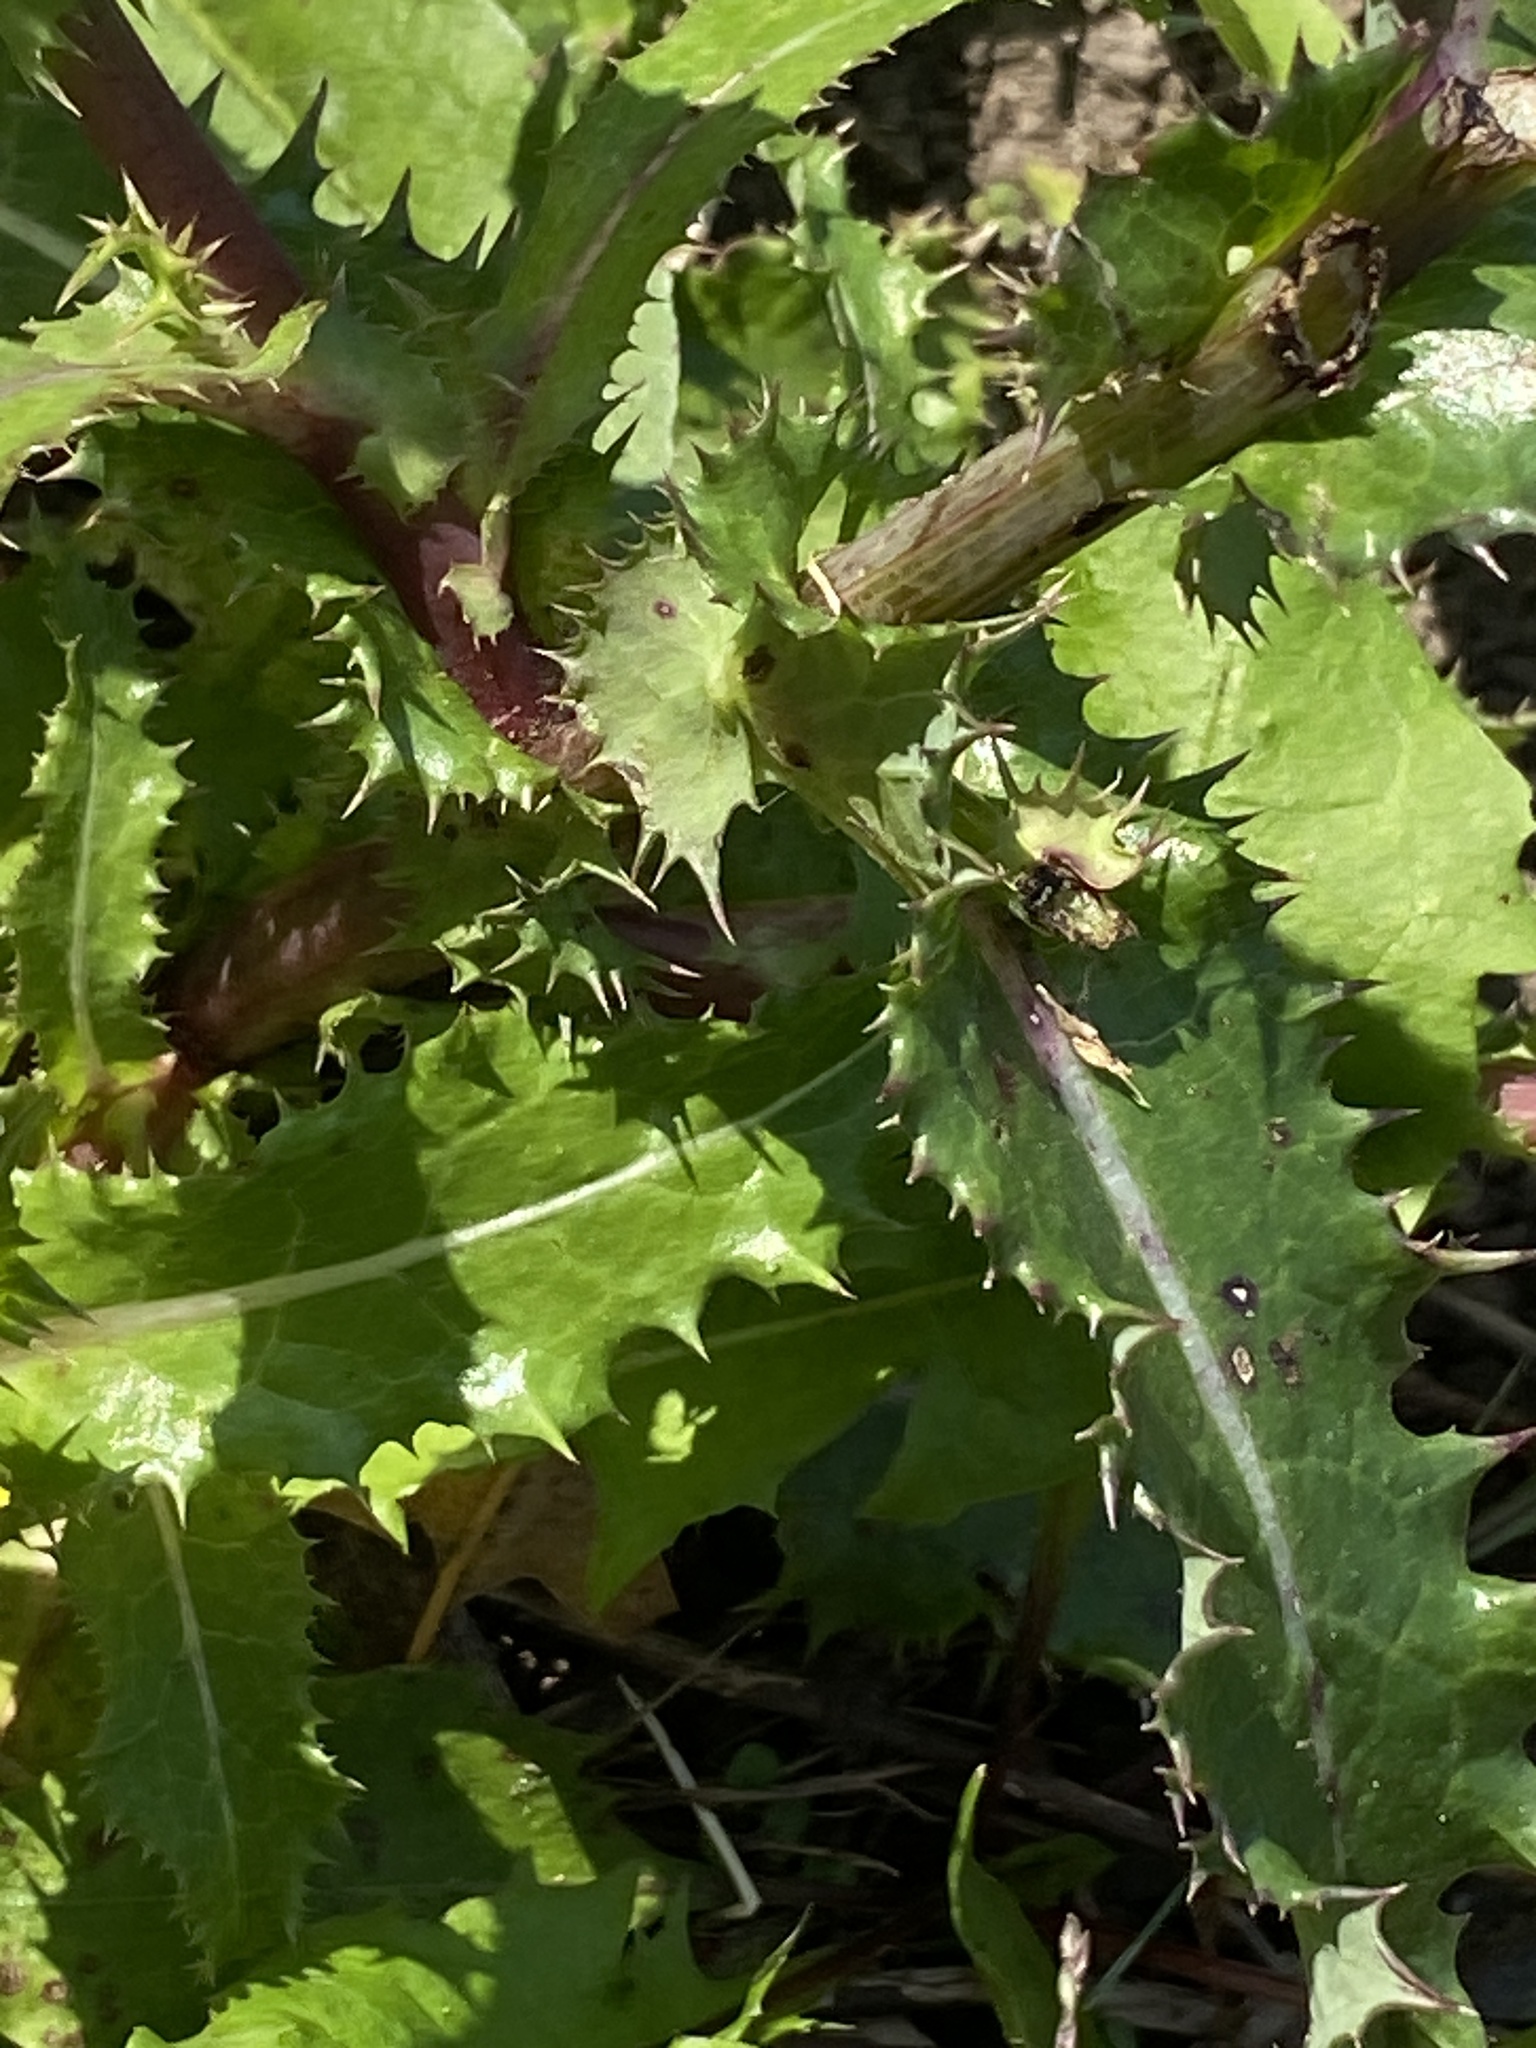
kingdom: Plantae
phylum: Tracheophyta
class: Magnoliopsida
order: Asterales
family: Asteraceae
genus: Sonchus
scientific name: Sonchus asper
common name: Prickly sow-thistle
